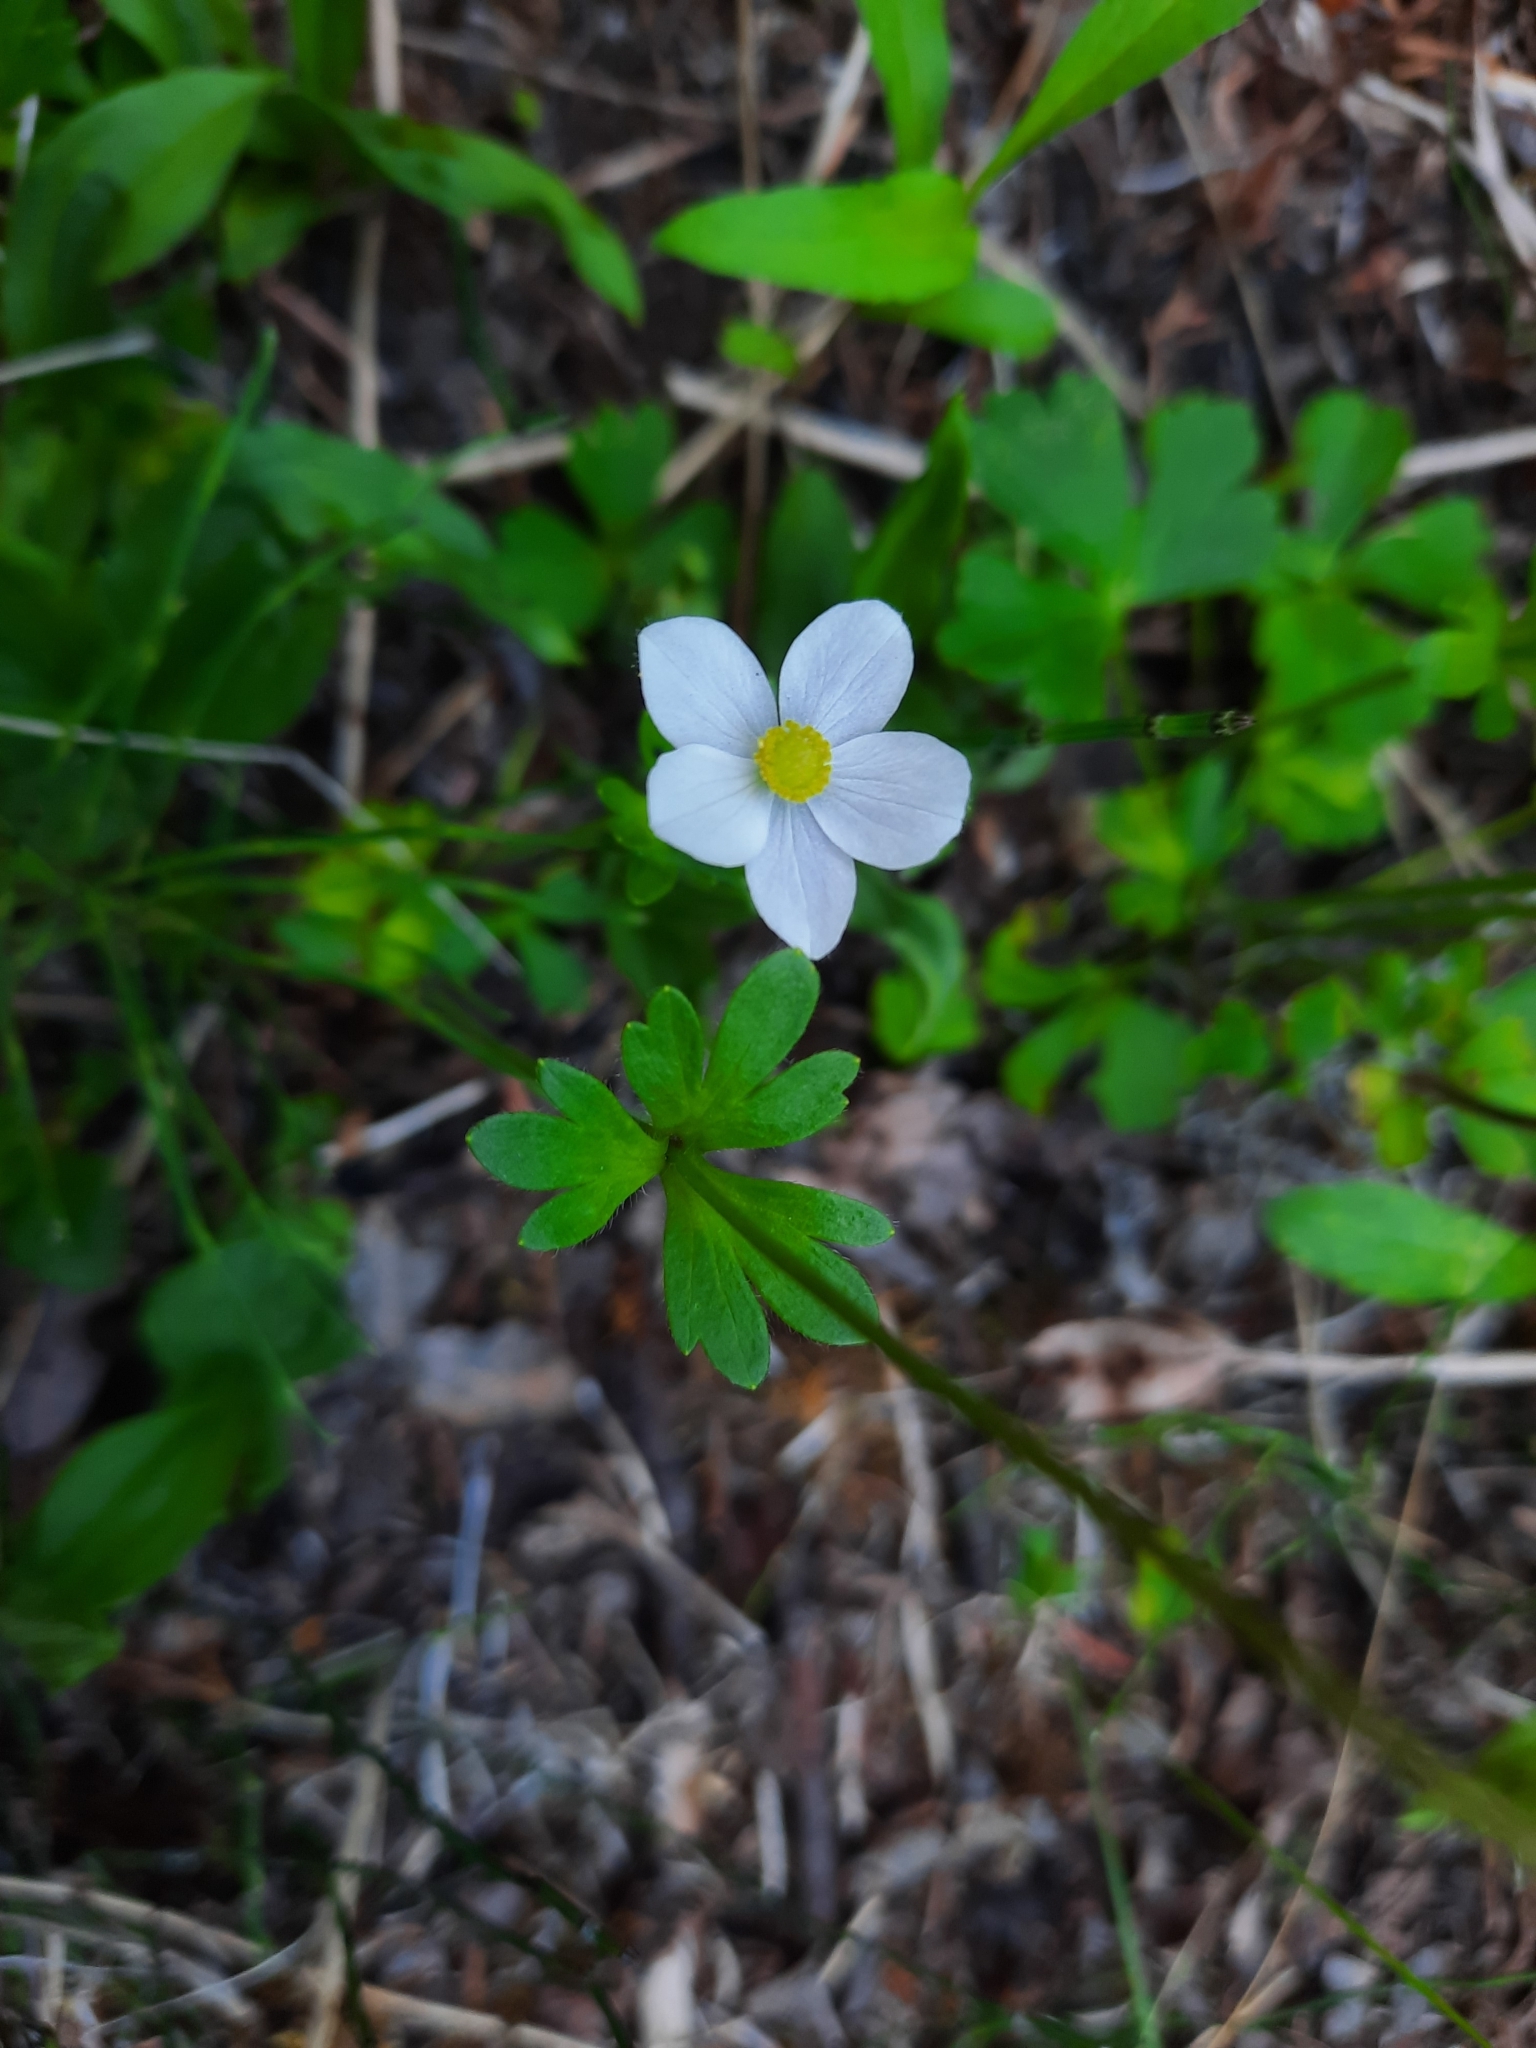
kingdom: Plantae
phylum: Tracheophyta
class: Magnoliopsida
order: Ranunculales
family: Ranunculaceae
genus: Anemone
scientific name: Anemone parviflora
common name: Northern anemone
